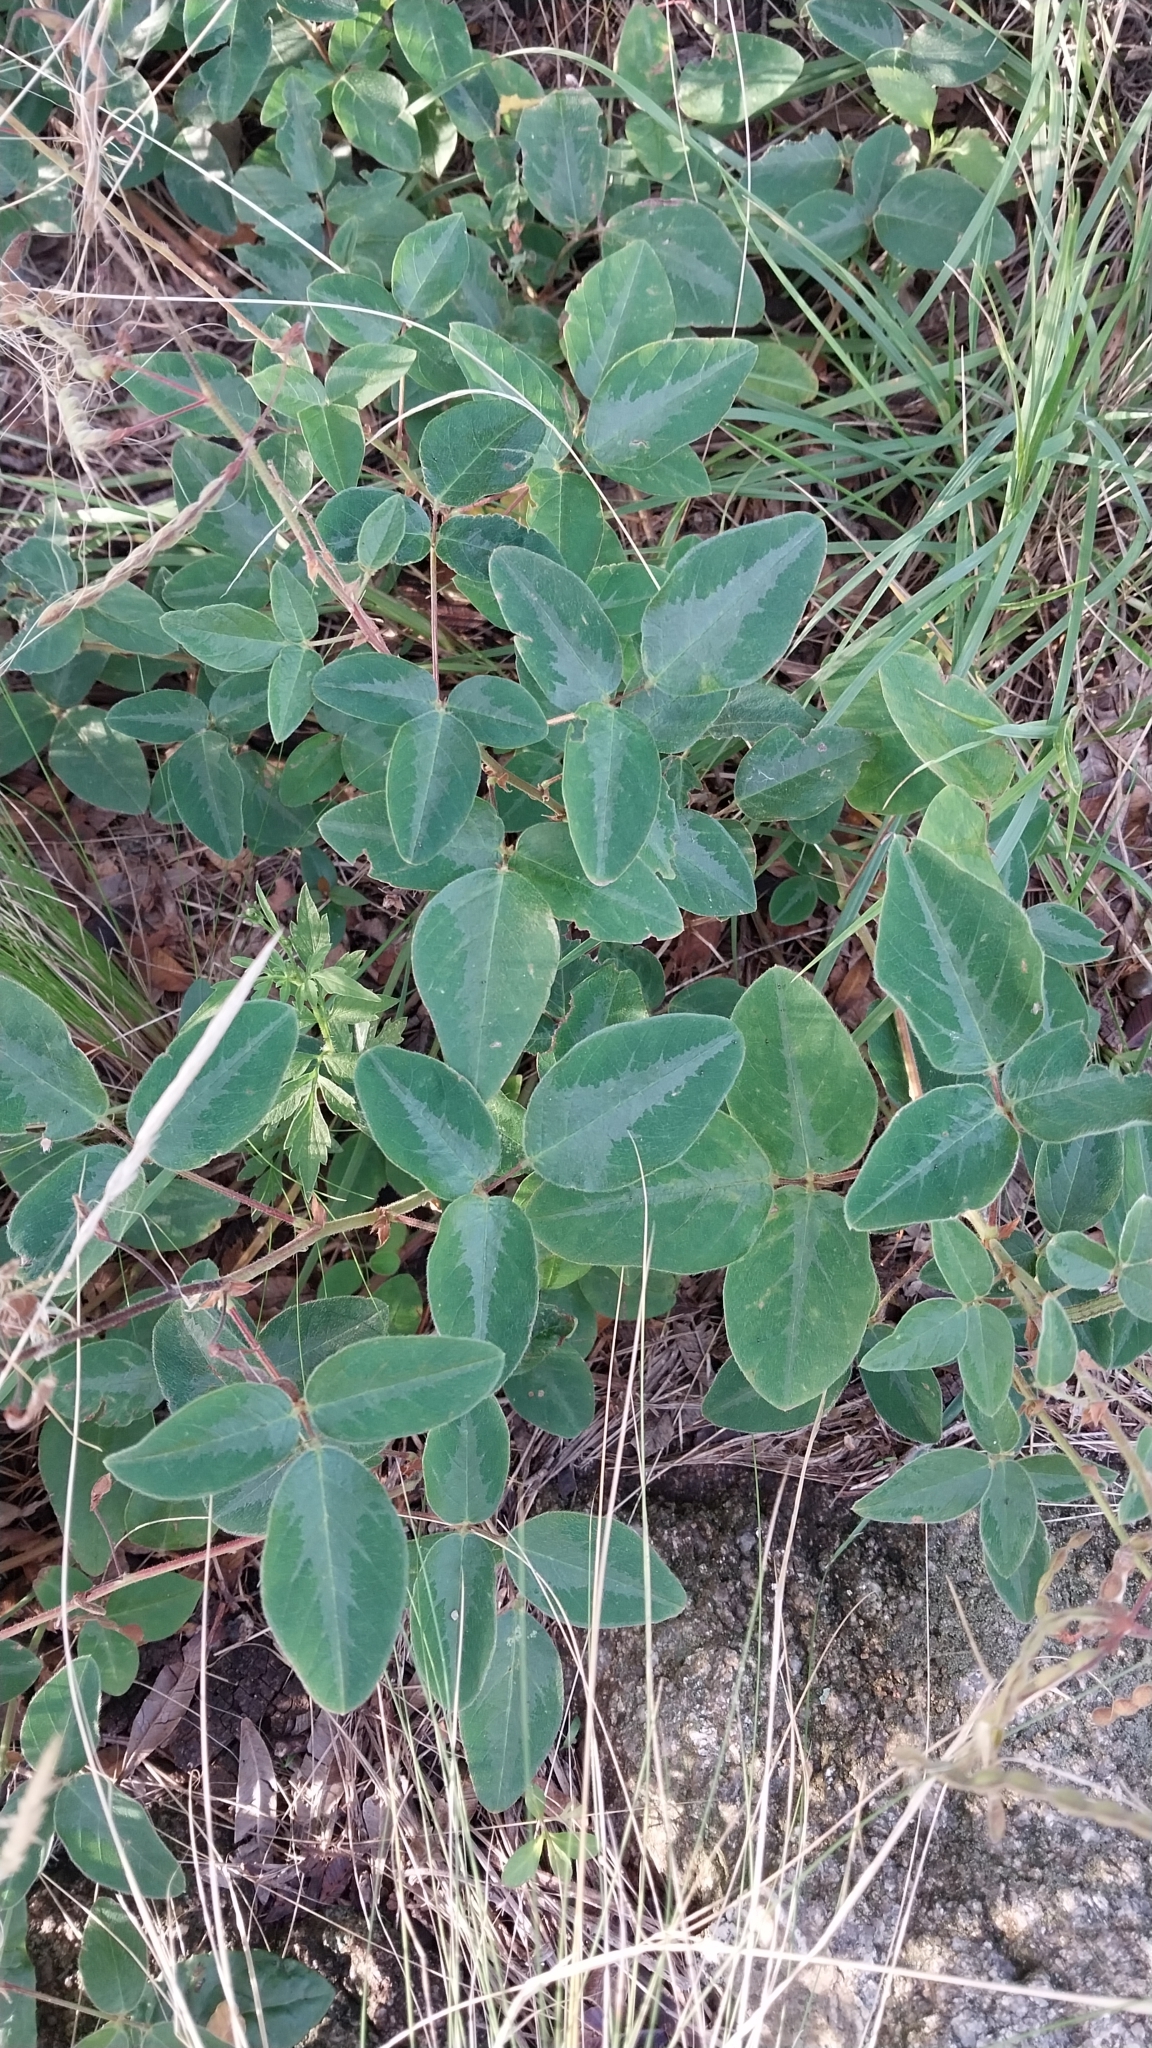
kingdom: Plantae
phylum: Tracheophyta
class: Magnoliopsida
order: Fabales
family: Fabaceae
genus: Desmodium
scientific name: Desmodium uncinatum
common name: Silverleaf desmodium
